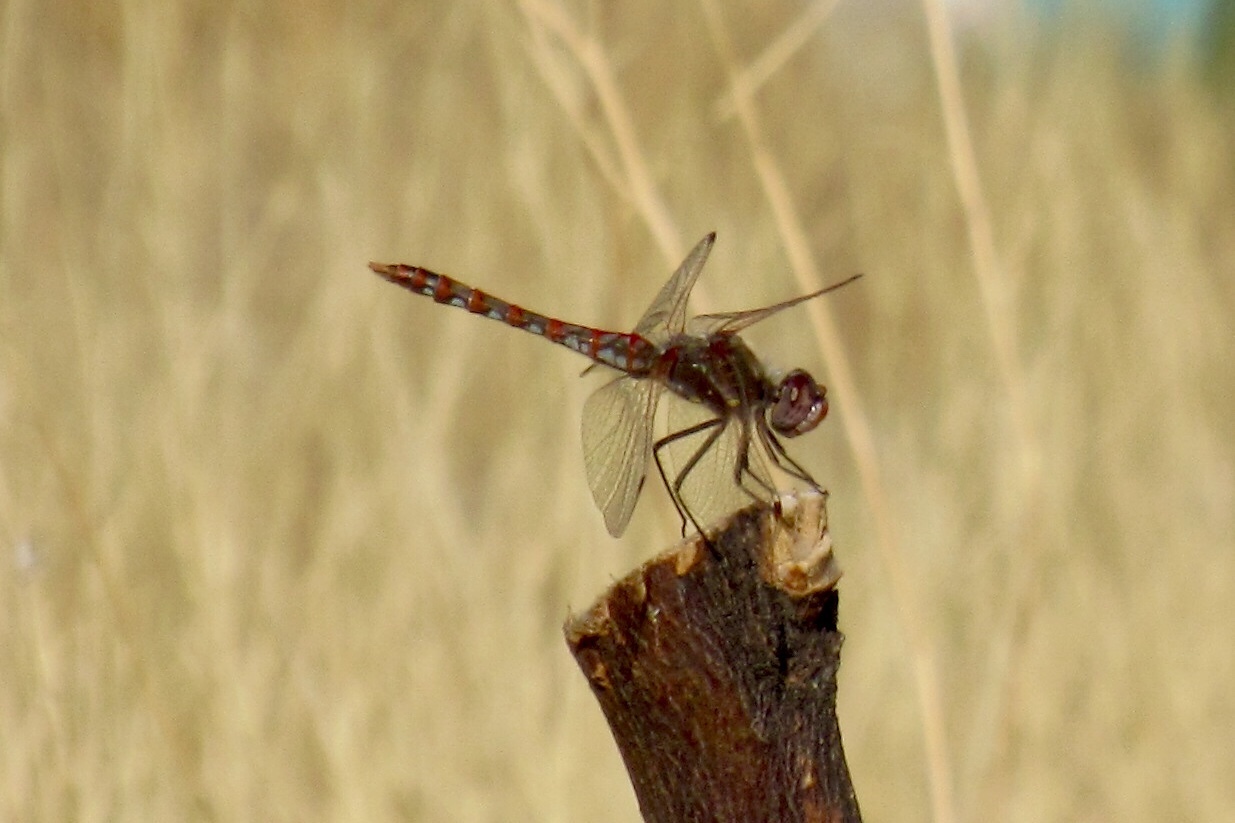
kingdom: Animalia
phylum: Arthropoda
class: Insecta
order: Odonata
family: Libellulidae
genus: Sympetrum
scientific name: Sympetrum corruptum
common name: Variegated meadowhawk
